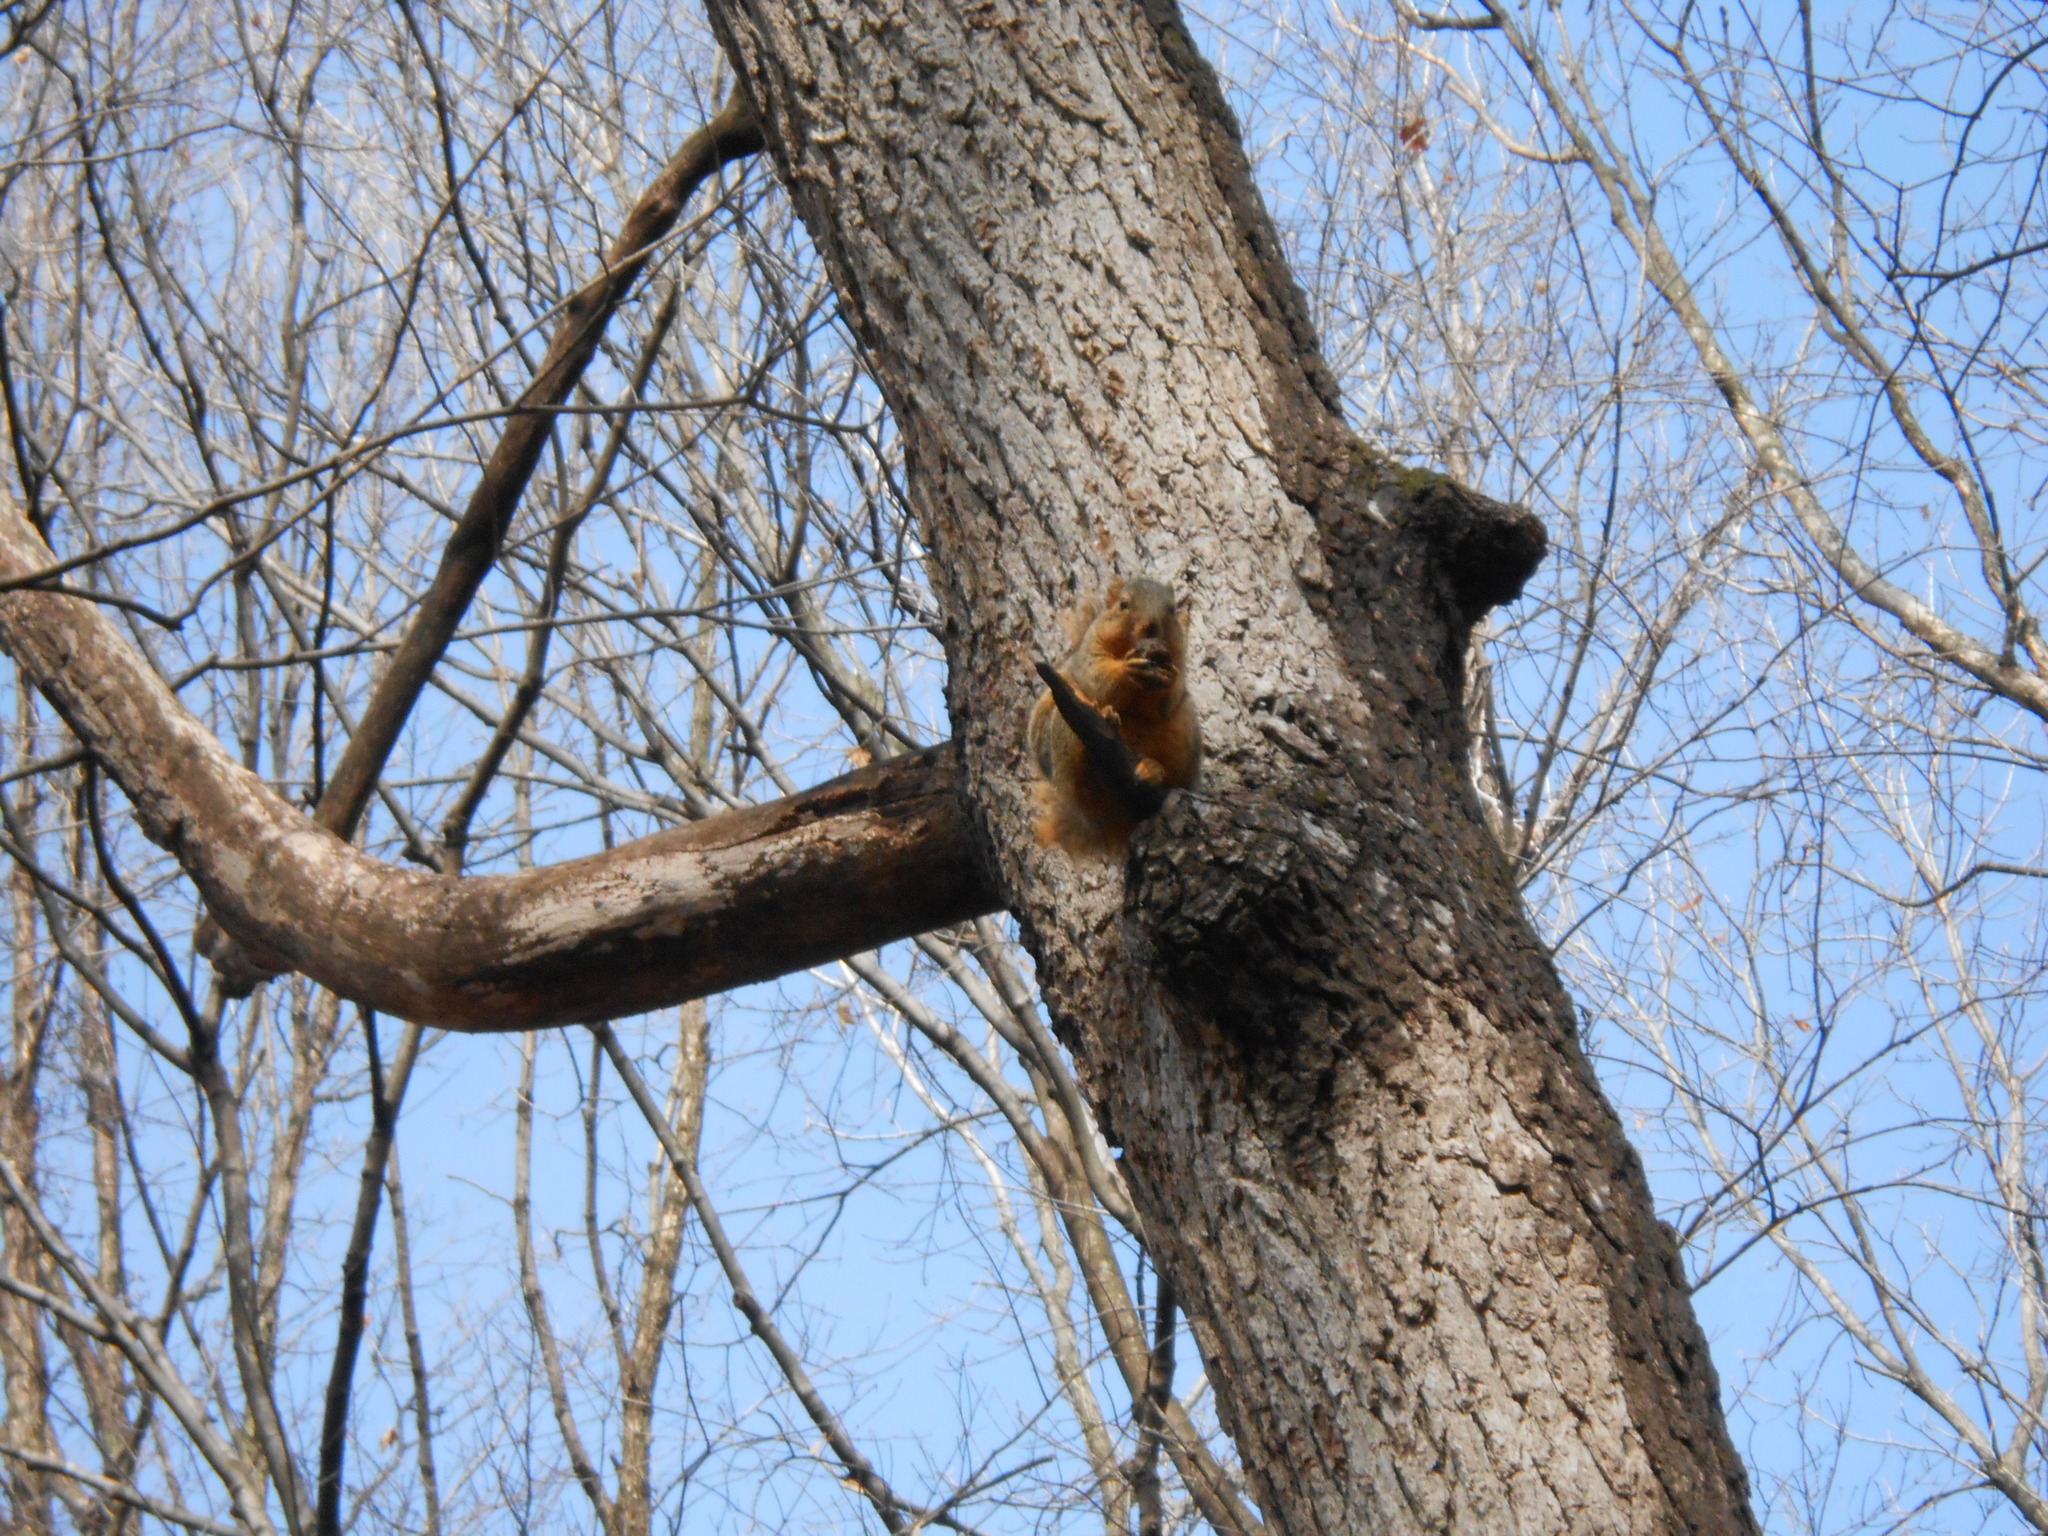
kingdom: Animalia
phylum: Chordata
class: Mammalia
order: Rodentia
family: Sciuridae
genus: Sciurus
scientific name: Sciurus niger
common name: Fox squirrel
